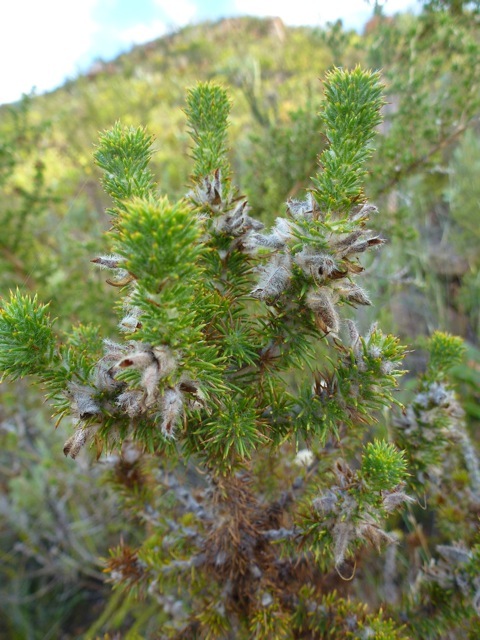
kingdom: Plantae
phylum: Tracheophyta
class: Magnoliopsida
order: Fabales
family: Fabaceae
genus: Aspalathus
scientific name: Aspalathus shawii
